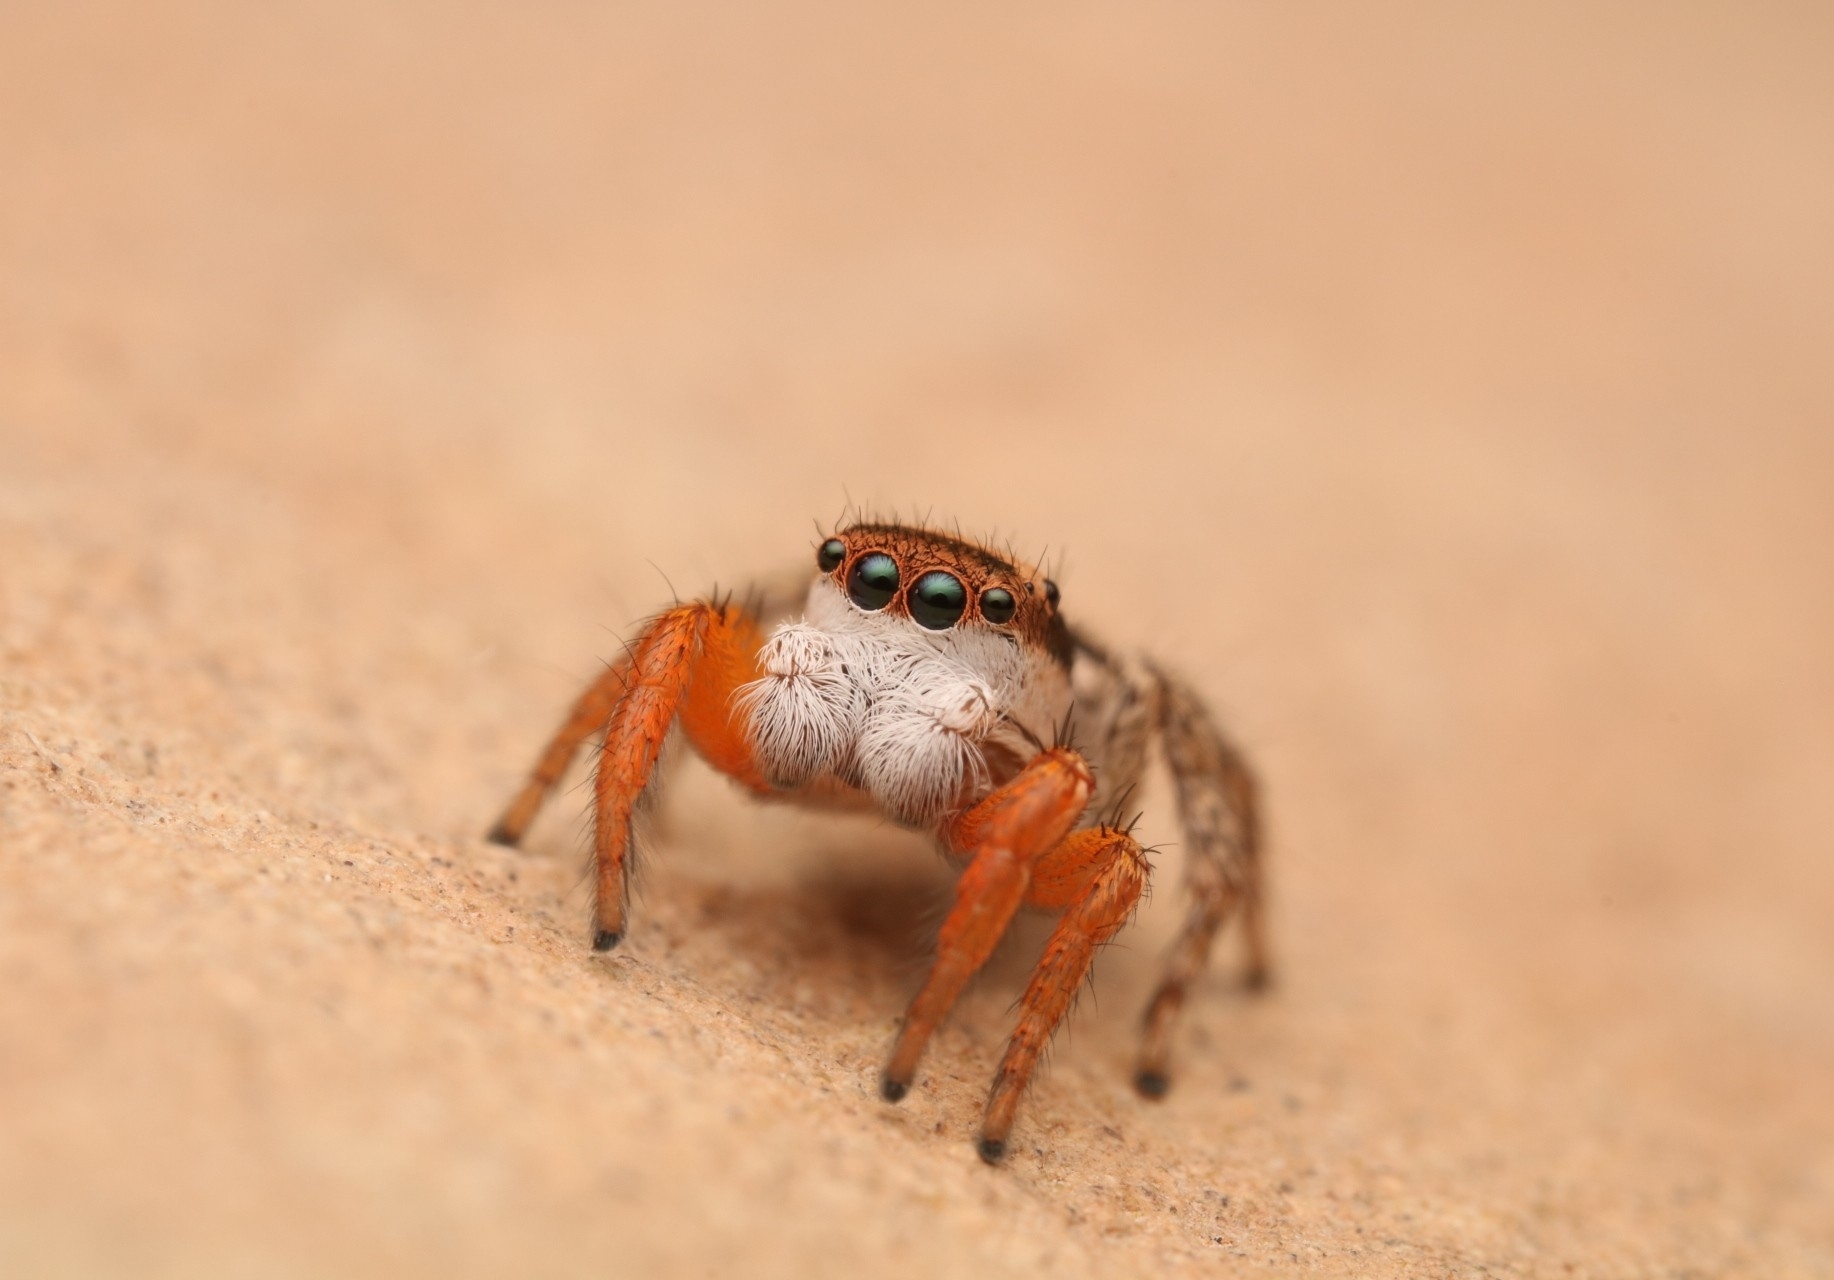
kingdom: Animalia
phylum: Arthropoda
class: Arachnida
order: Araneae
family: Salticidae
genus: Habronattus
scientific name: Habronattus icenoglei
